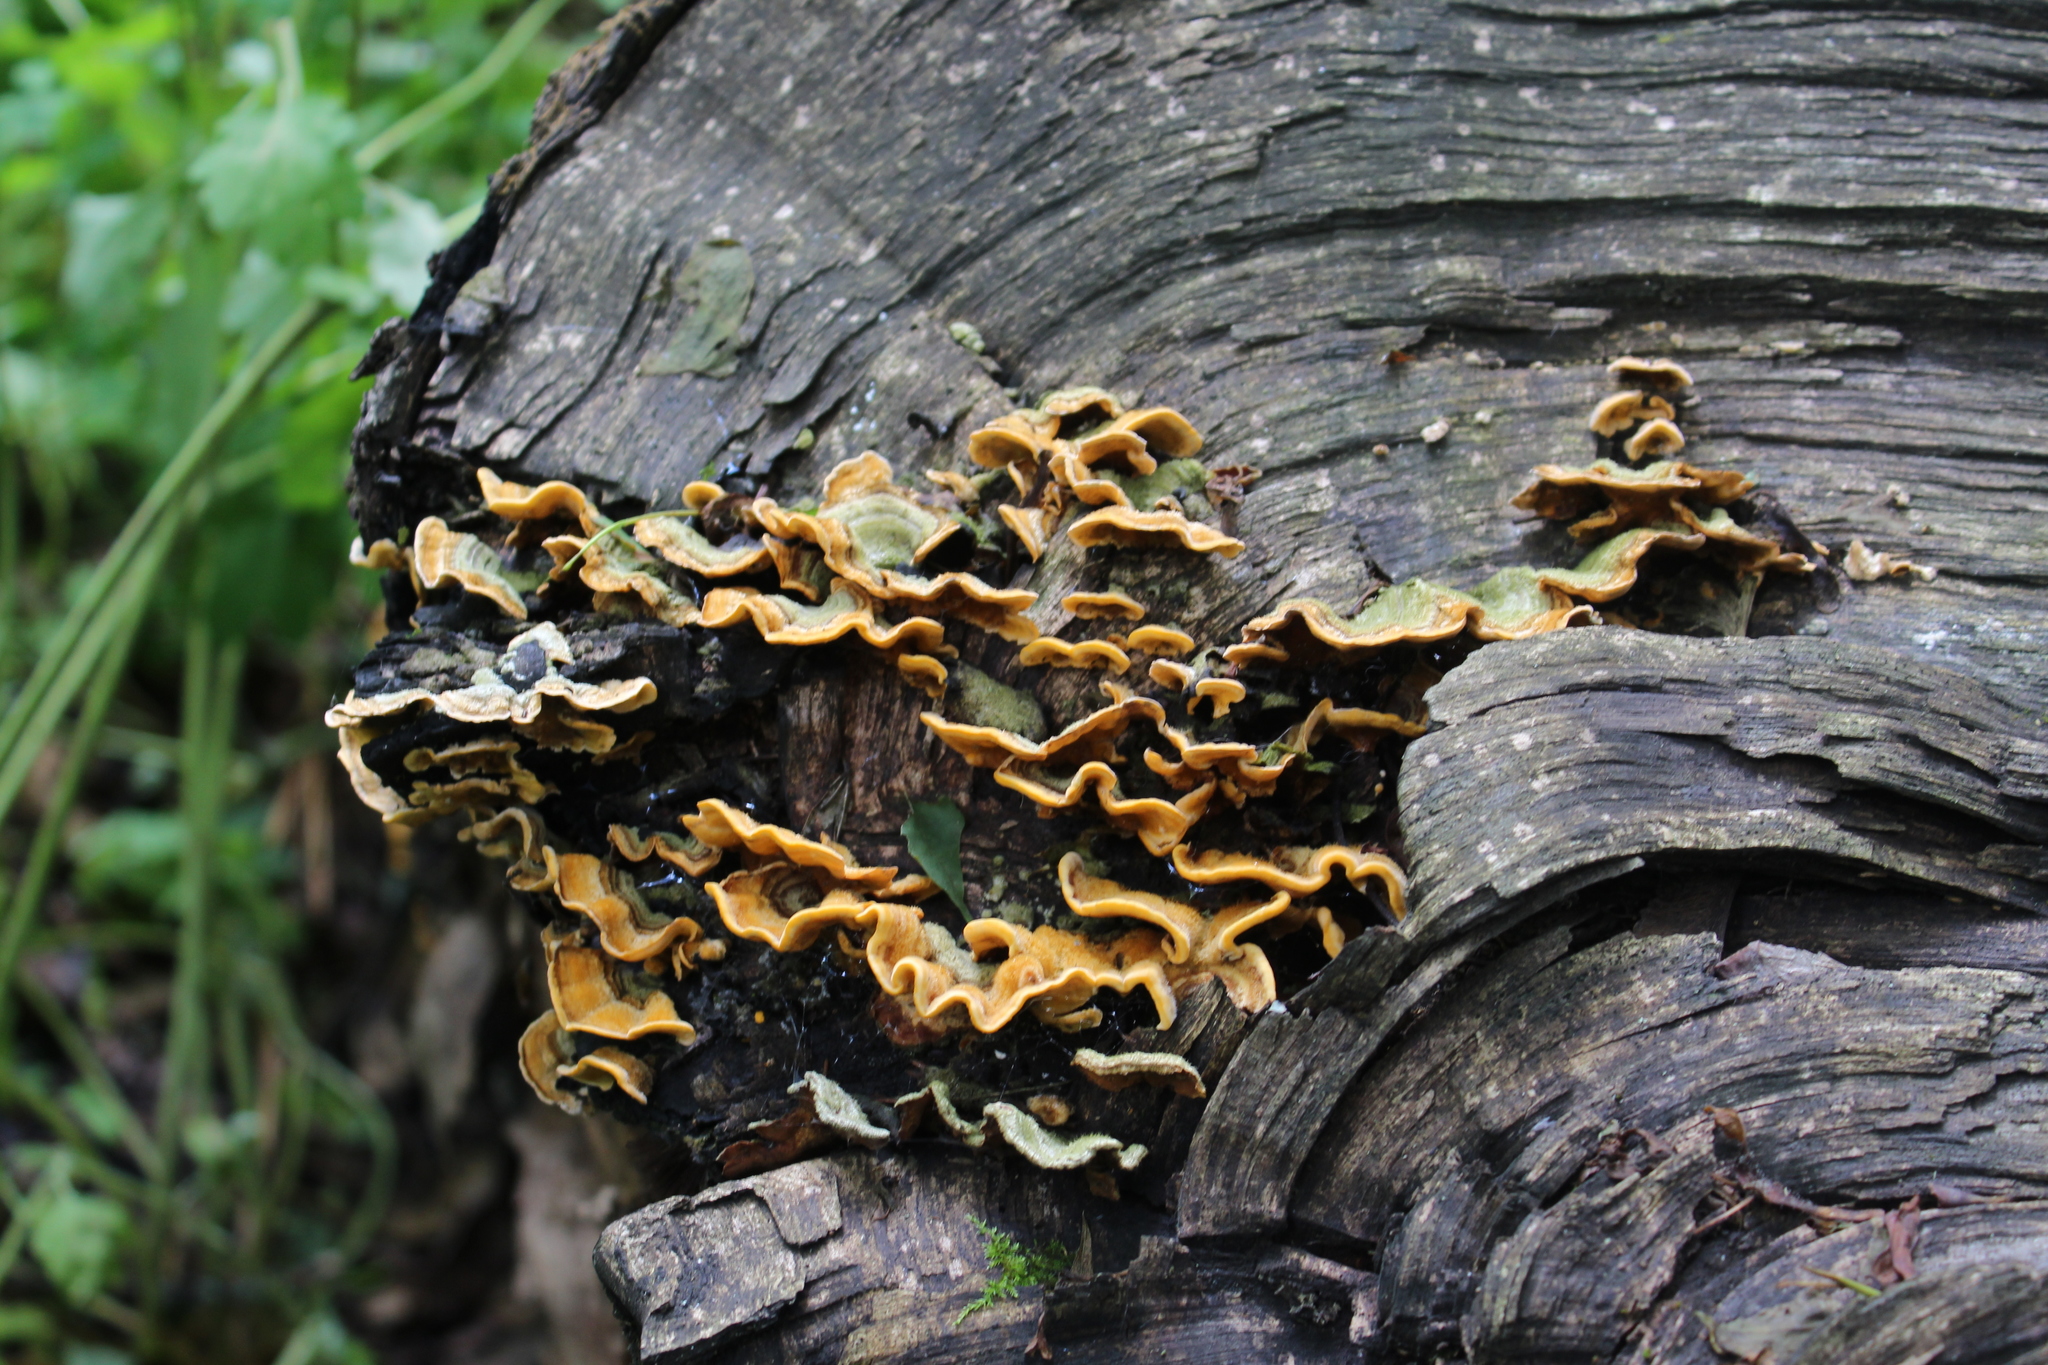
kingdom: Fungi
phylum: Basidiomycota
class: Agaricomycetes
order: Russulales
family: Stereaceae
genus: Stereum
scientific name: Stereum hirsutum
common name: Hairy curtain crust
